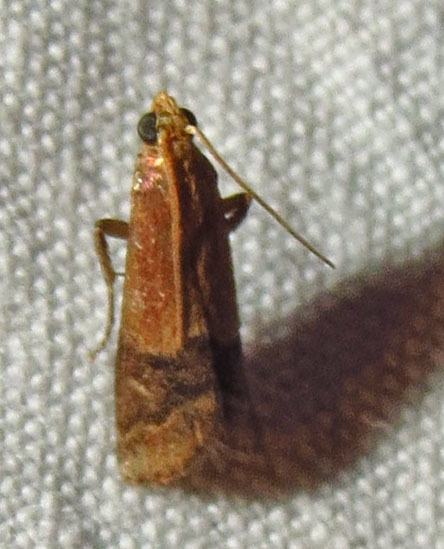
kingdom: Animalia
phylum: Arthropoda
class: Insecta
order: Lepidoptera
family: Pyralidae
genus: Eulogia
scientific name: Eulogia ochrifrontella
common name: Broad-banded eulogia moth
